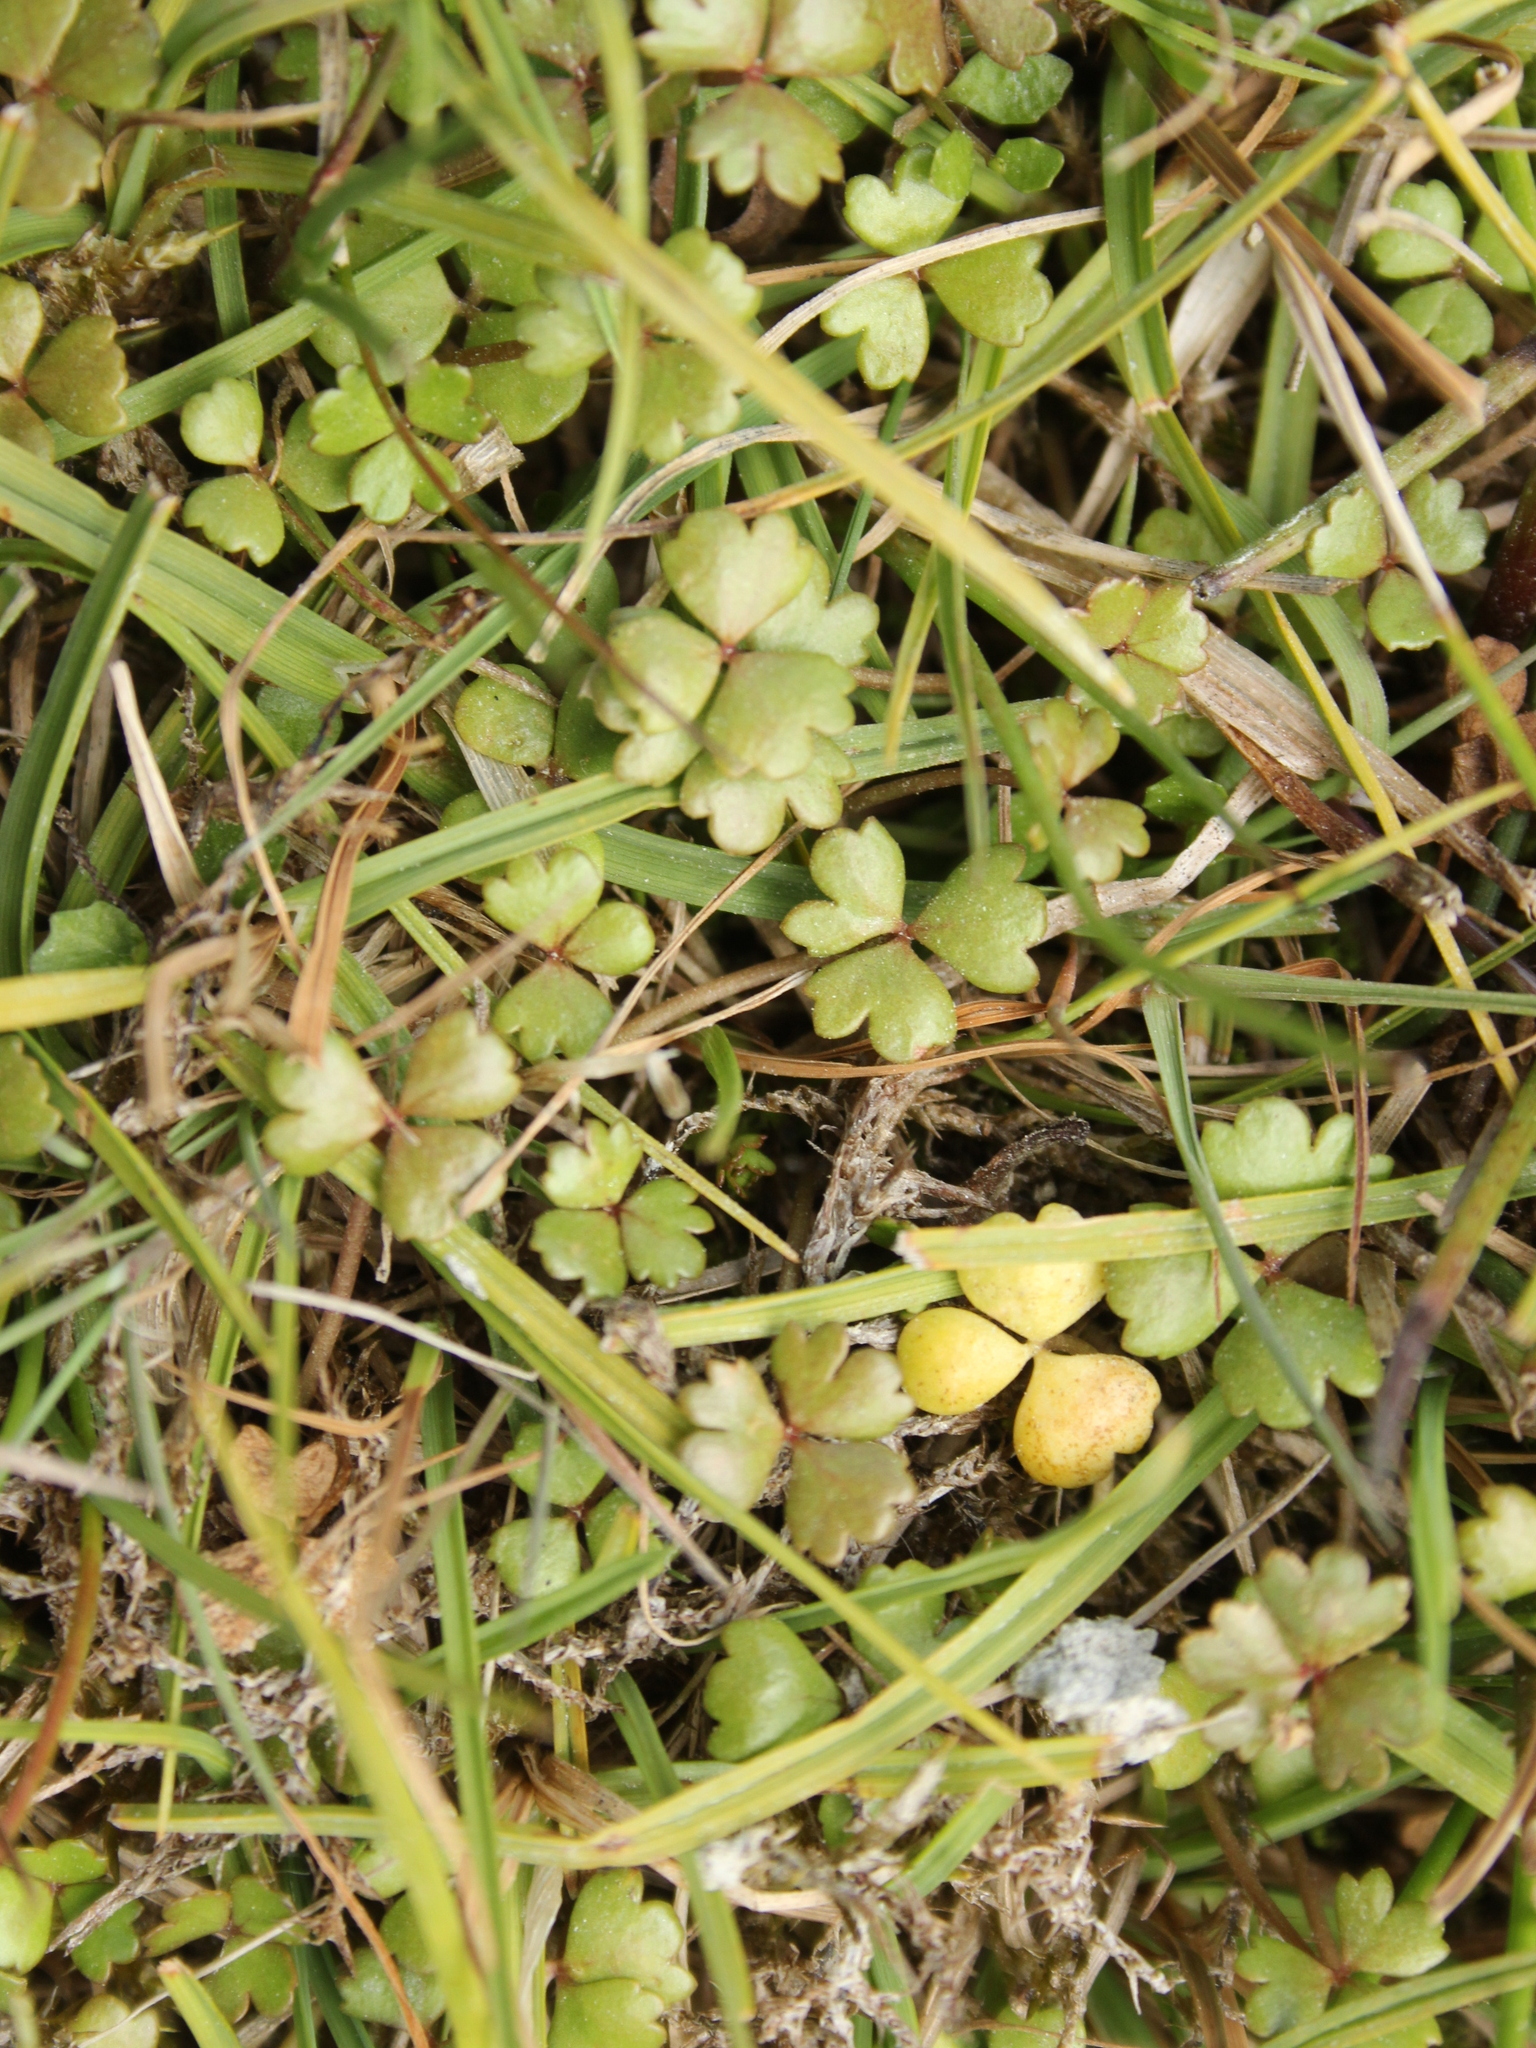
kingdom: Plantae
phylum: Tracheophyta
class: Magnoliopsida
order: Apiales
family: Araliaceae
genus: Hydrocotyle
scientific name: Hydrocotyle sulcata
